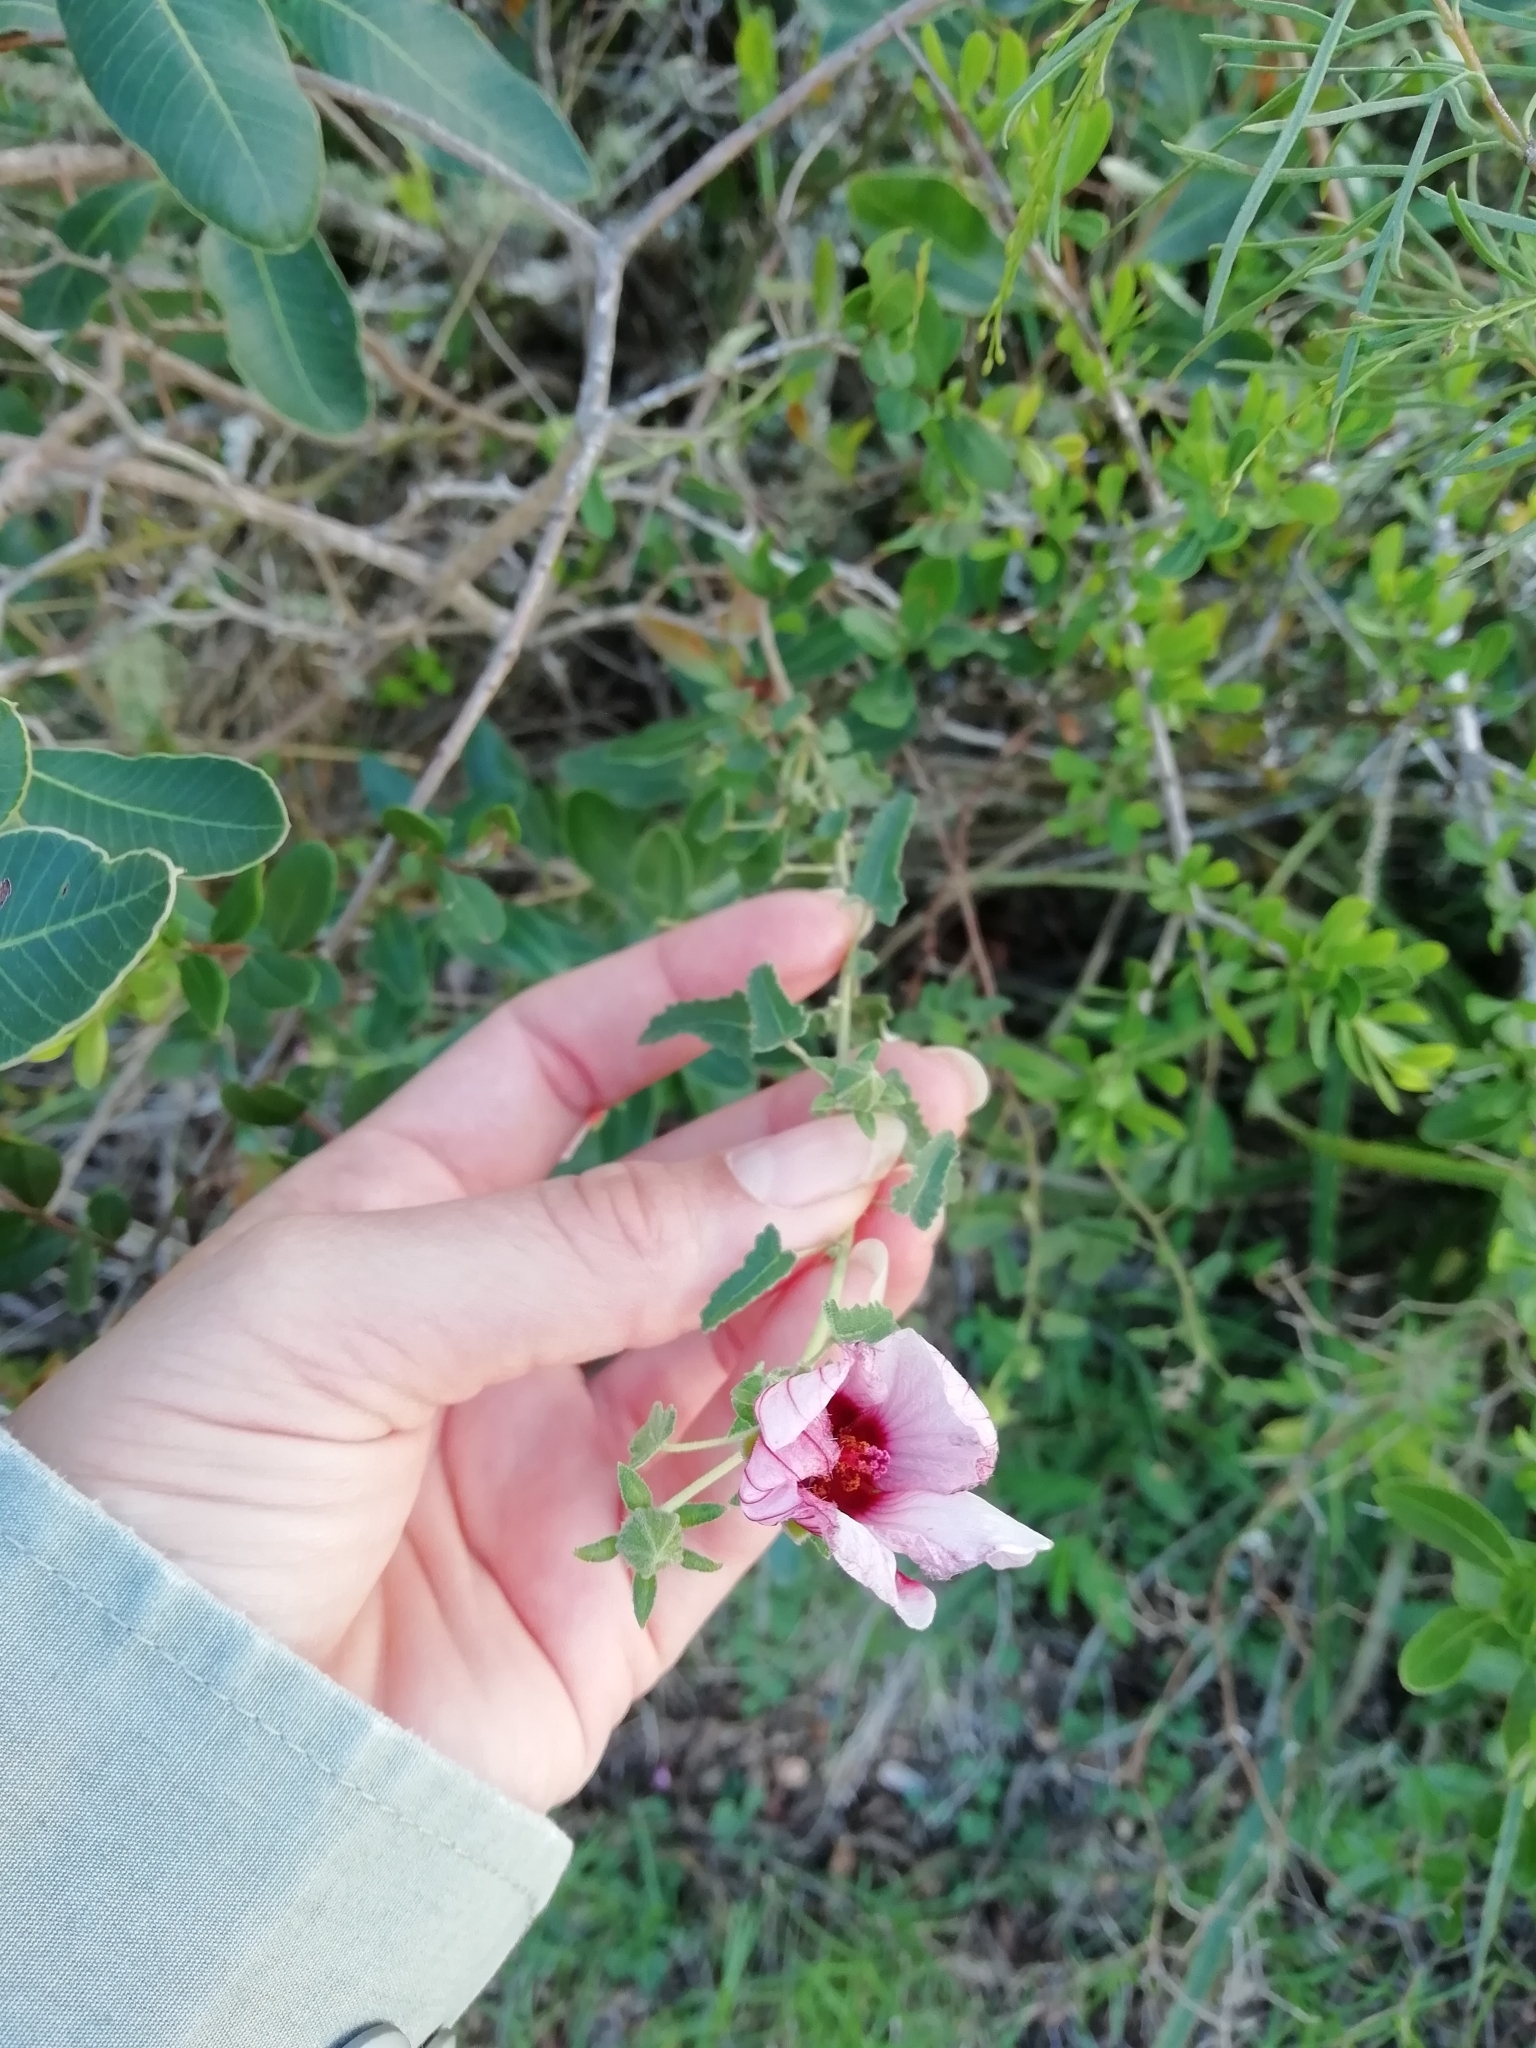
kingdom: Plantae
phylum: Tracheophyta
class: Magnoliopsida
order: Malvales
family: Malvaceae
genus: Pavonia
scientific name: Pavonia hastata
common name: Spearleaf swampmallow
